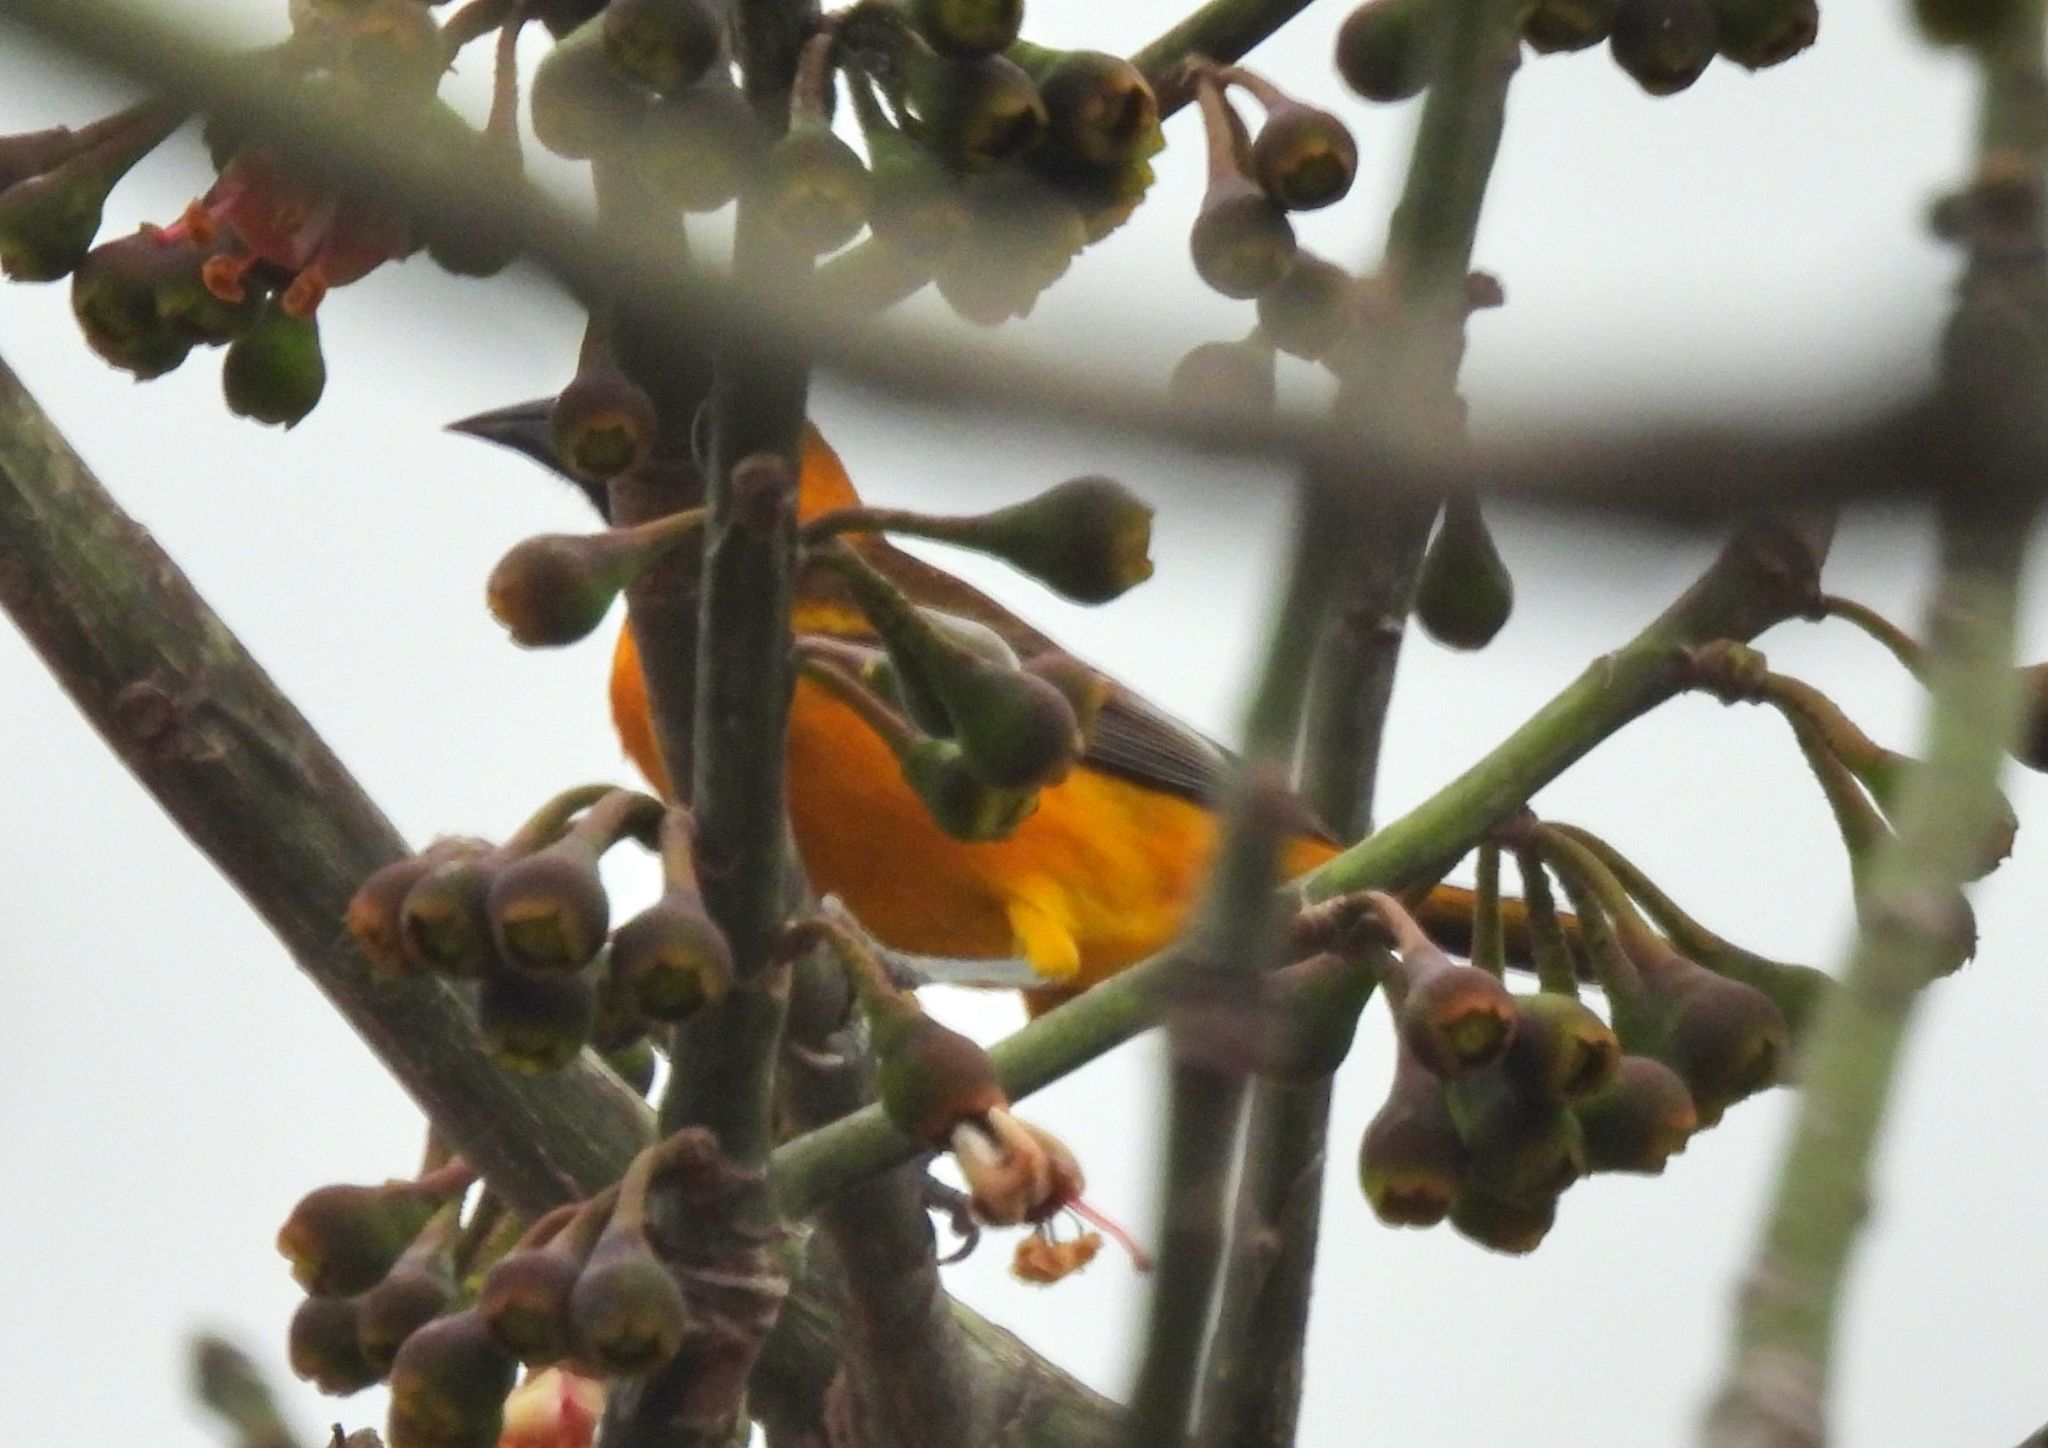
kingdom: Animalia
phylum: Chordata
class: Aves
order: Passeriformes
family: Icteridae
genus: Icterus
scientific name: Icterus gularis
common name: Altamira oriole
